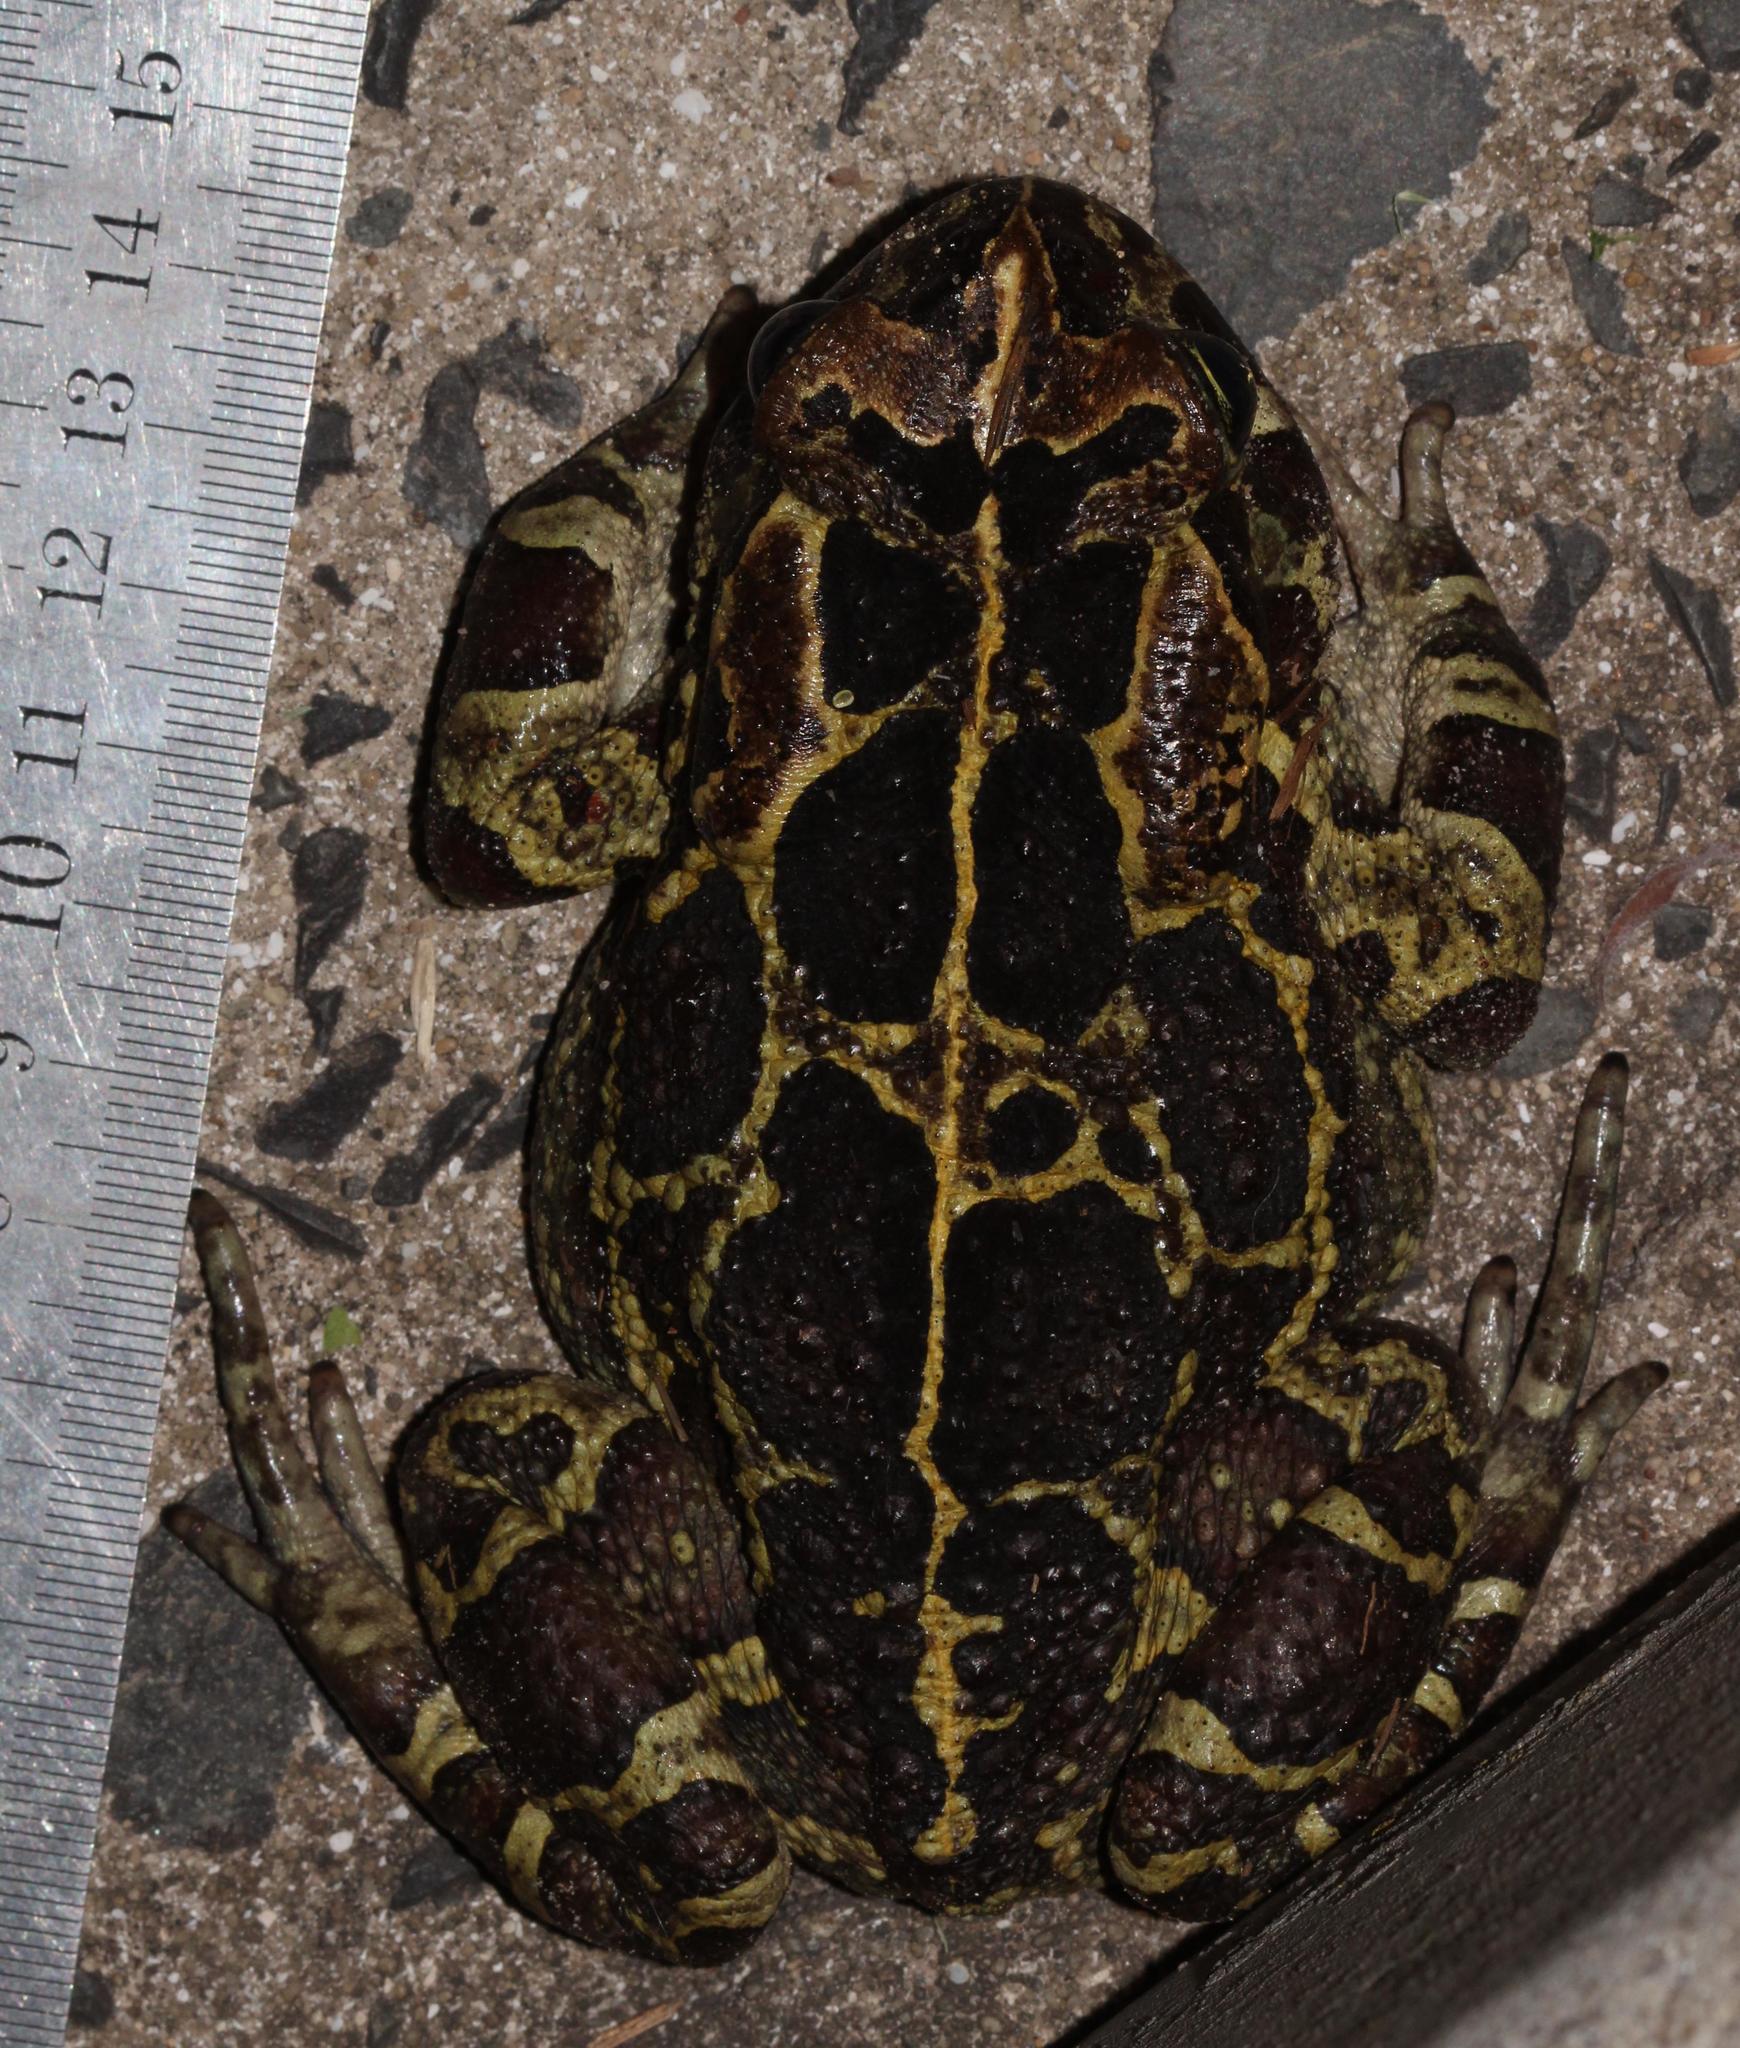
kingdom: Animalia
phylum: Chordata
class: Amphibia
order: Anura
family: Bufonidae
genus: Sclerophrys
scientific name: Sclerophrys pantherina
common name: Panther toad
